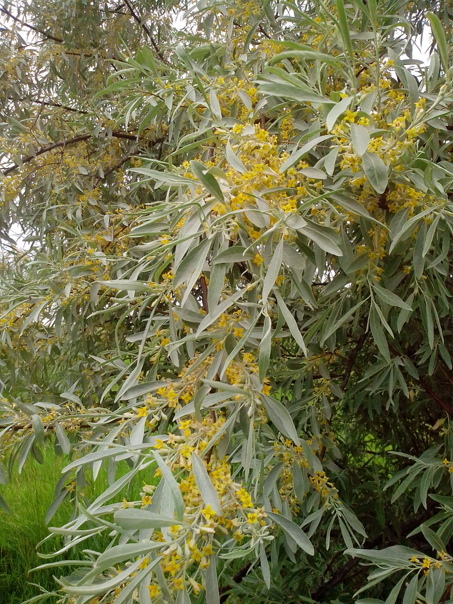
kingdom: Plantae
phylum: Tracheophyta
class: Magnoliopsida
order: Rosales
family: Elaeagnaceae
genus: Elaeagnus
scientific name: Elaeagnus angustifolia
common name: Russian olive
